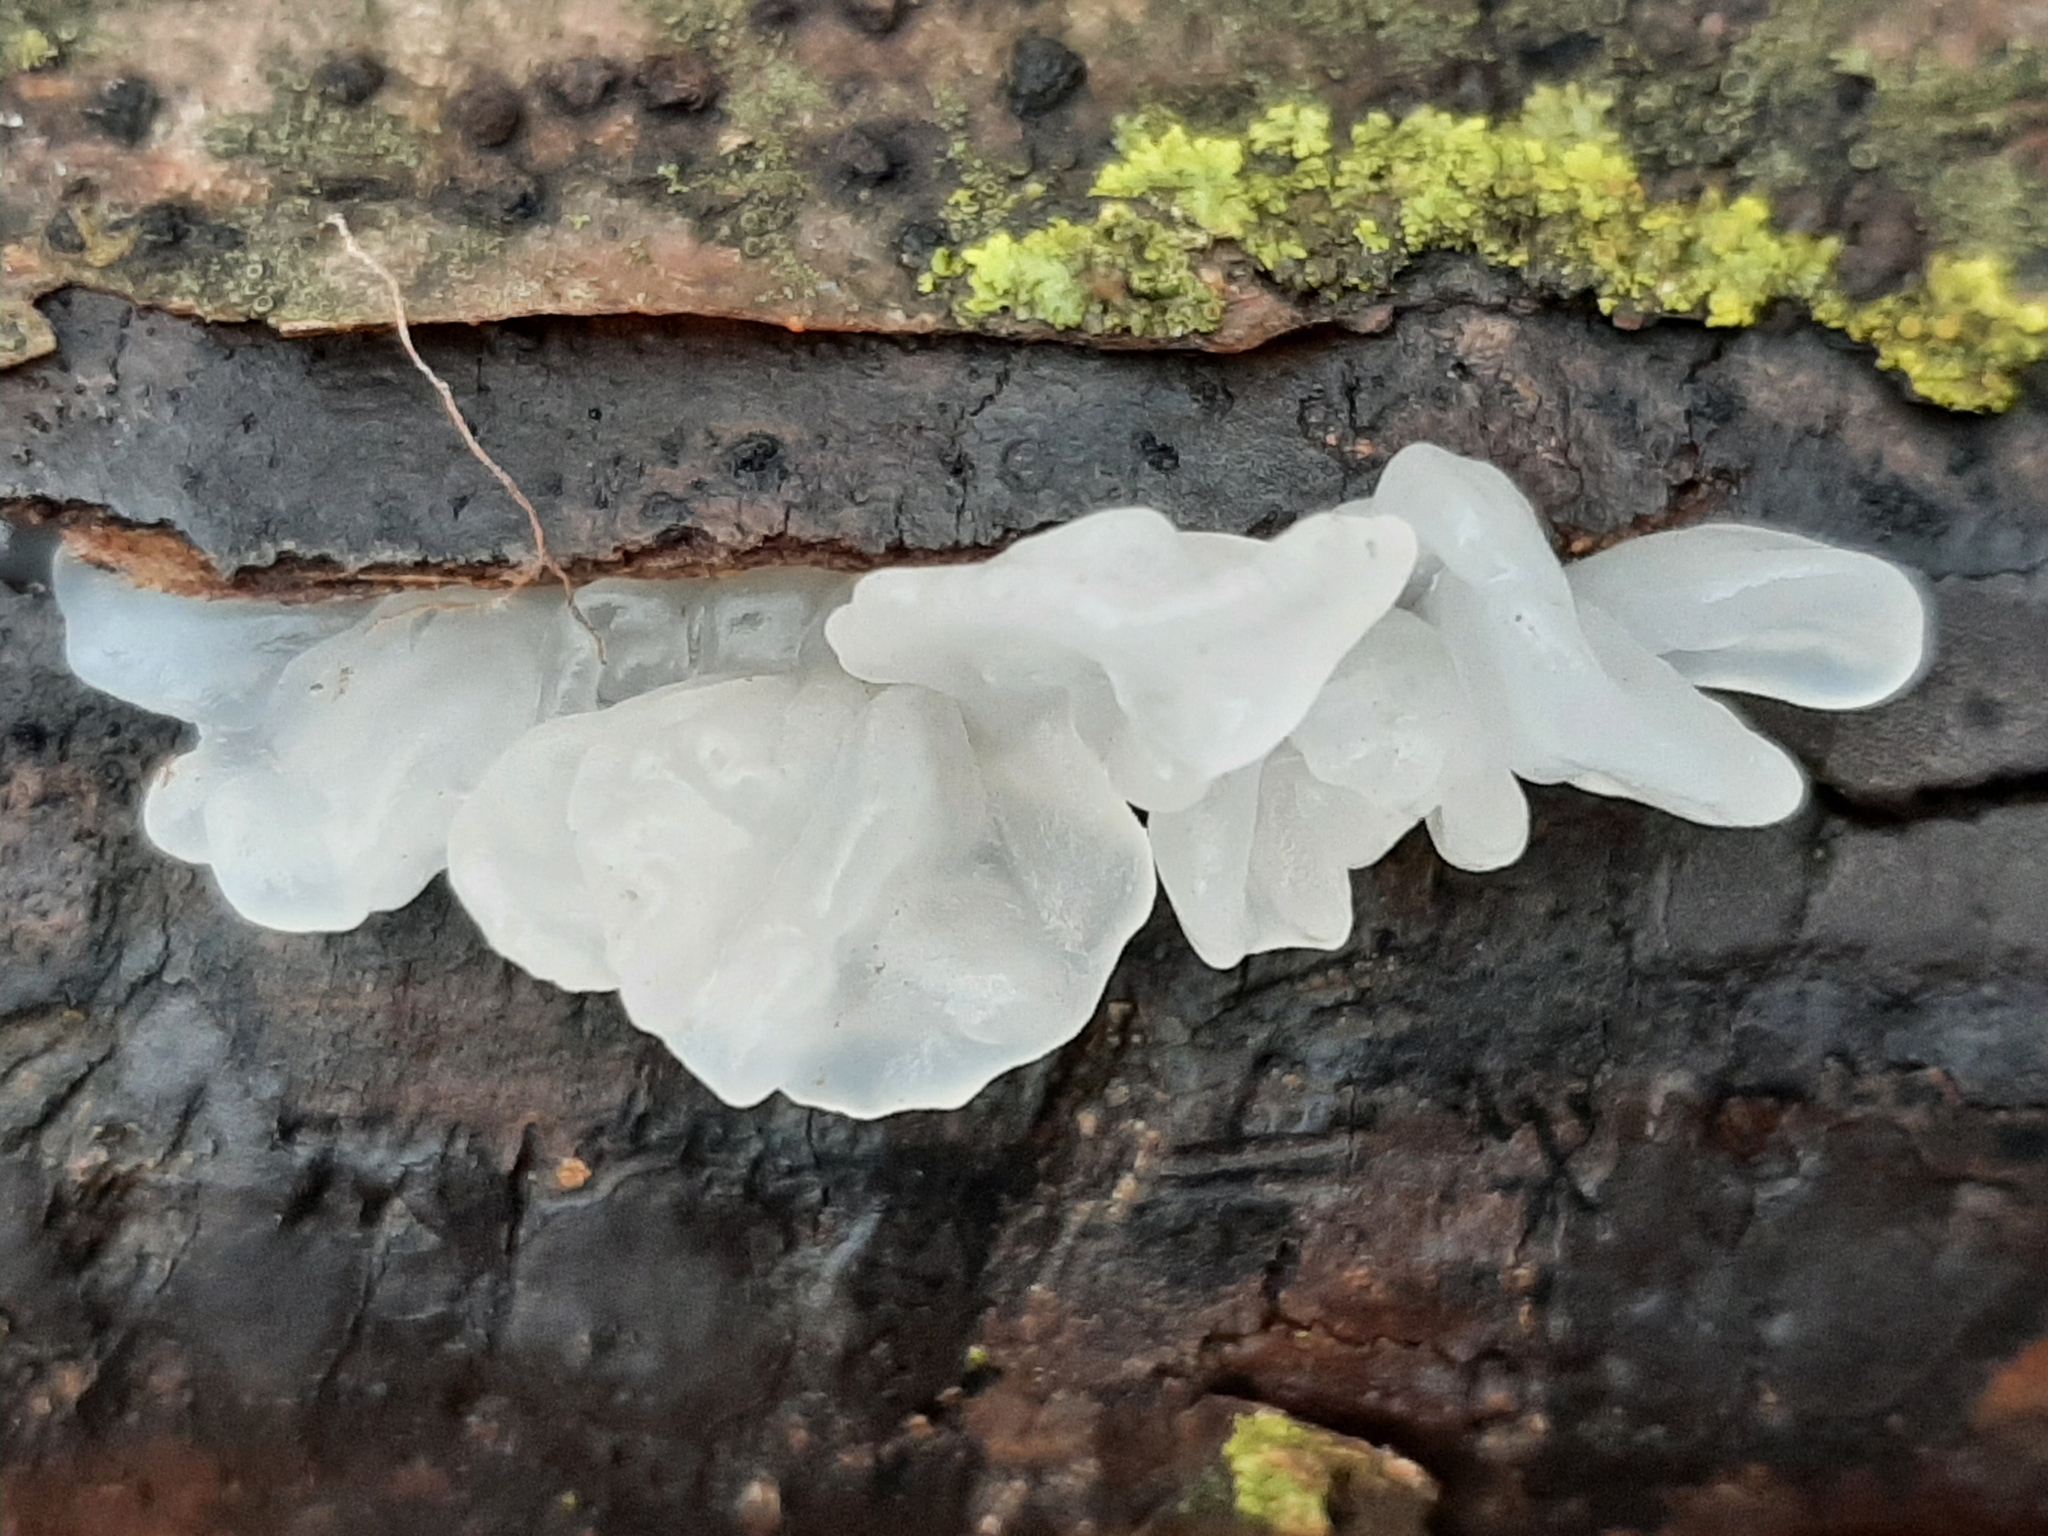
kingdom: Fungi
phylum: Basidiomycota
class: Tremellomycetes
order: Tremellales
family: Tremellaceae
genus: Tremella
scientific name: Tremella fuciformis
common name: Snow fungus
